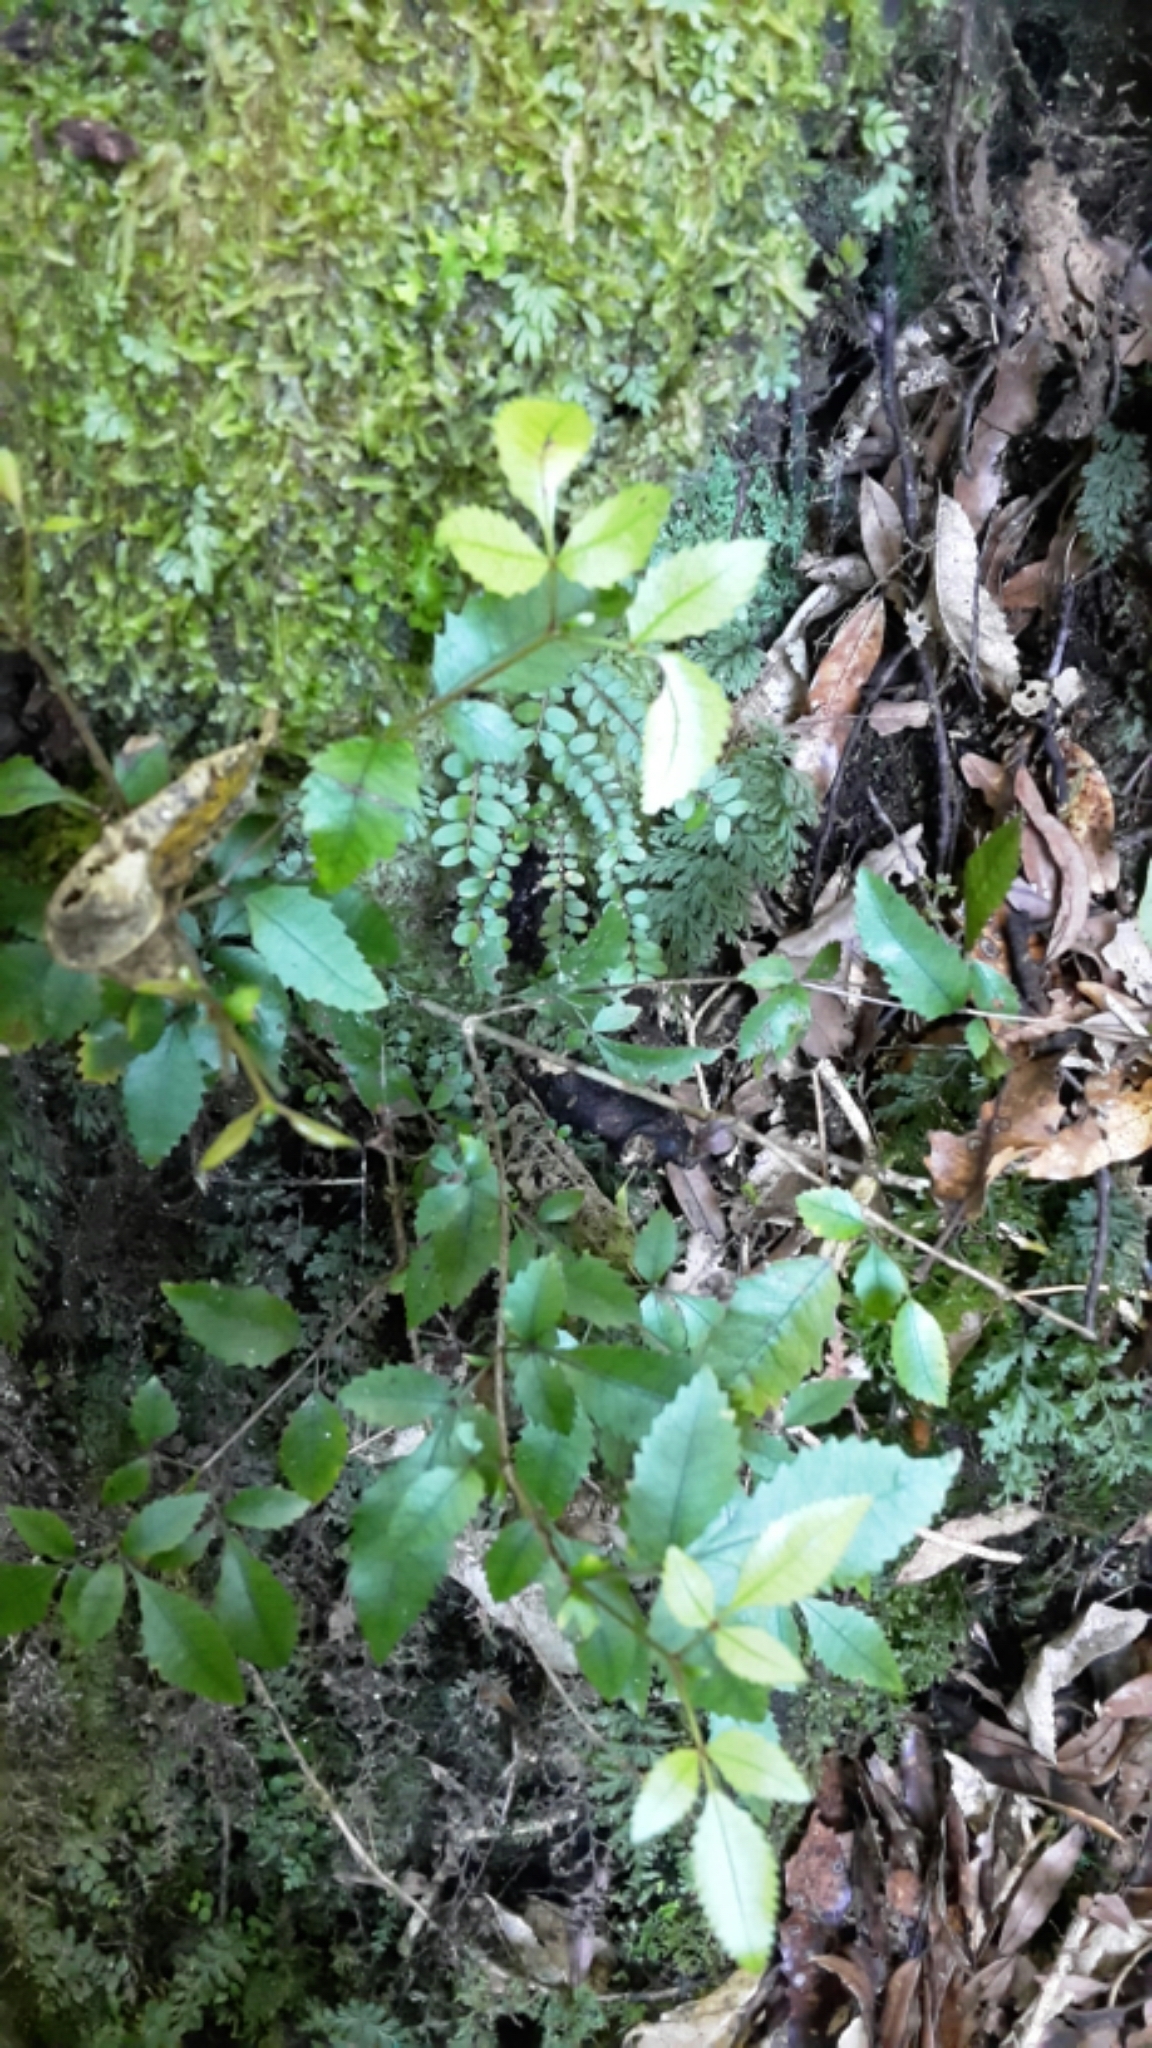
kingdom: Plantae
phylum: Tracheophyta
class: Magnoliopsida
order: Oxalidales
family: Cunoniaceae
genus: Pterophylla
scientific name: Pterophylla racemosa
